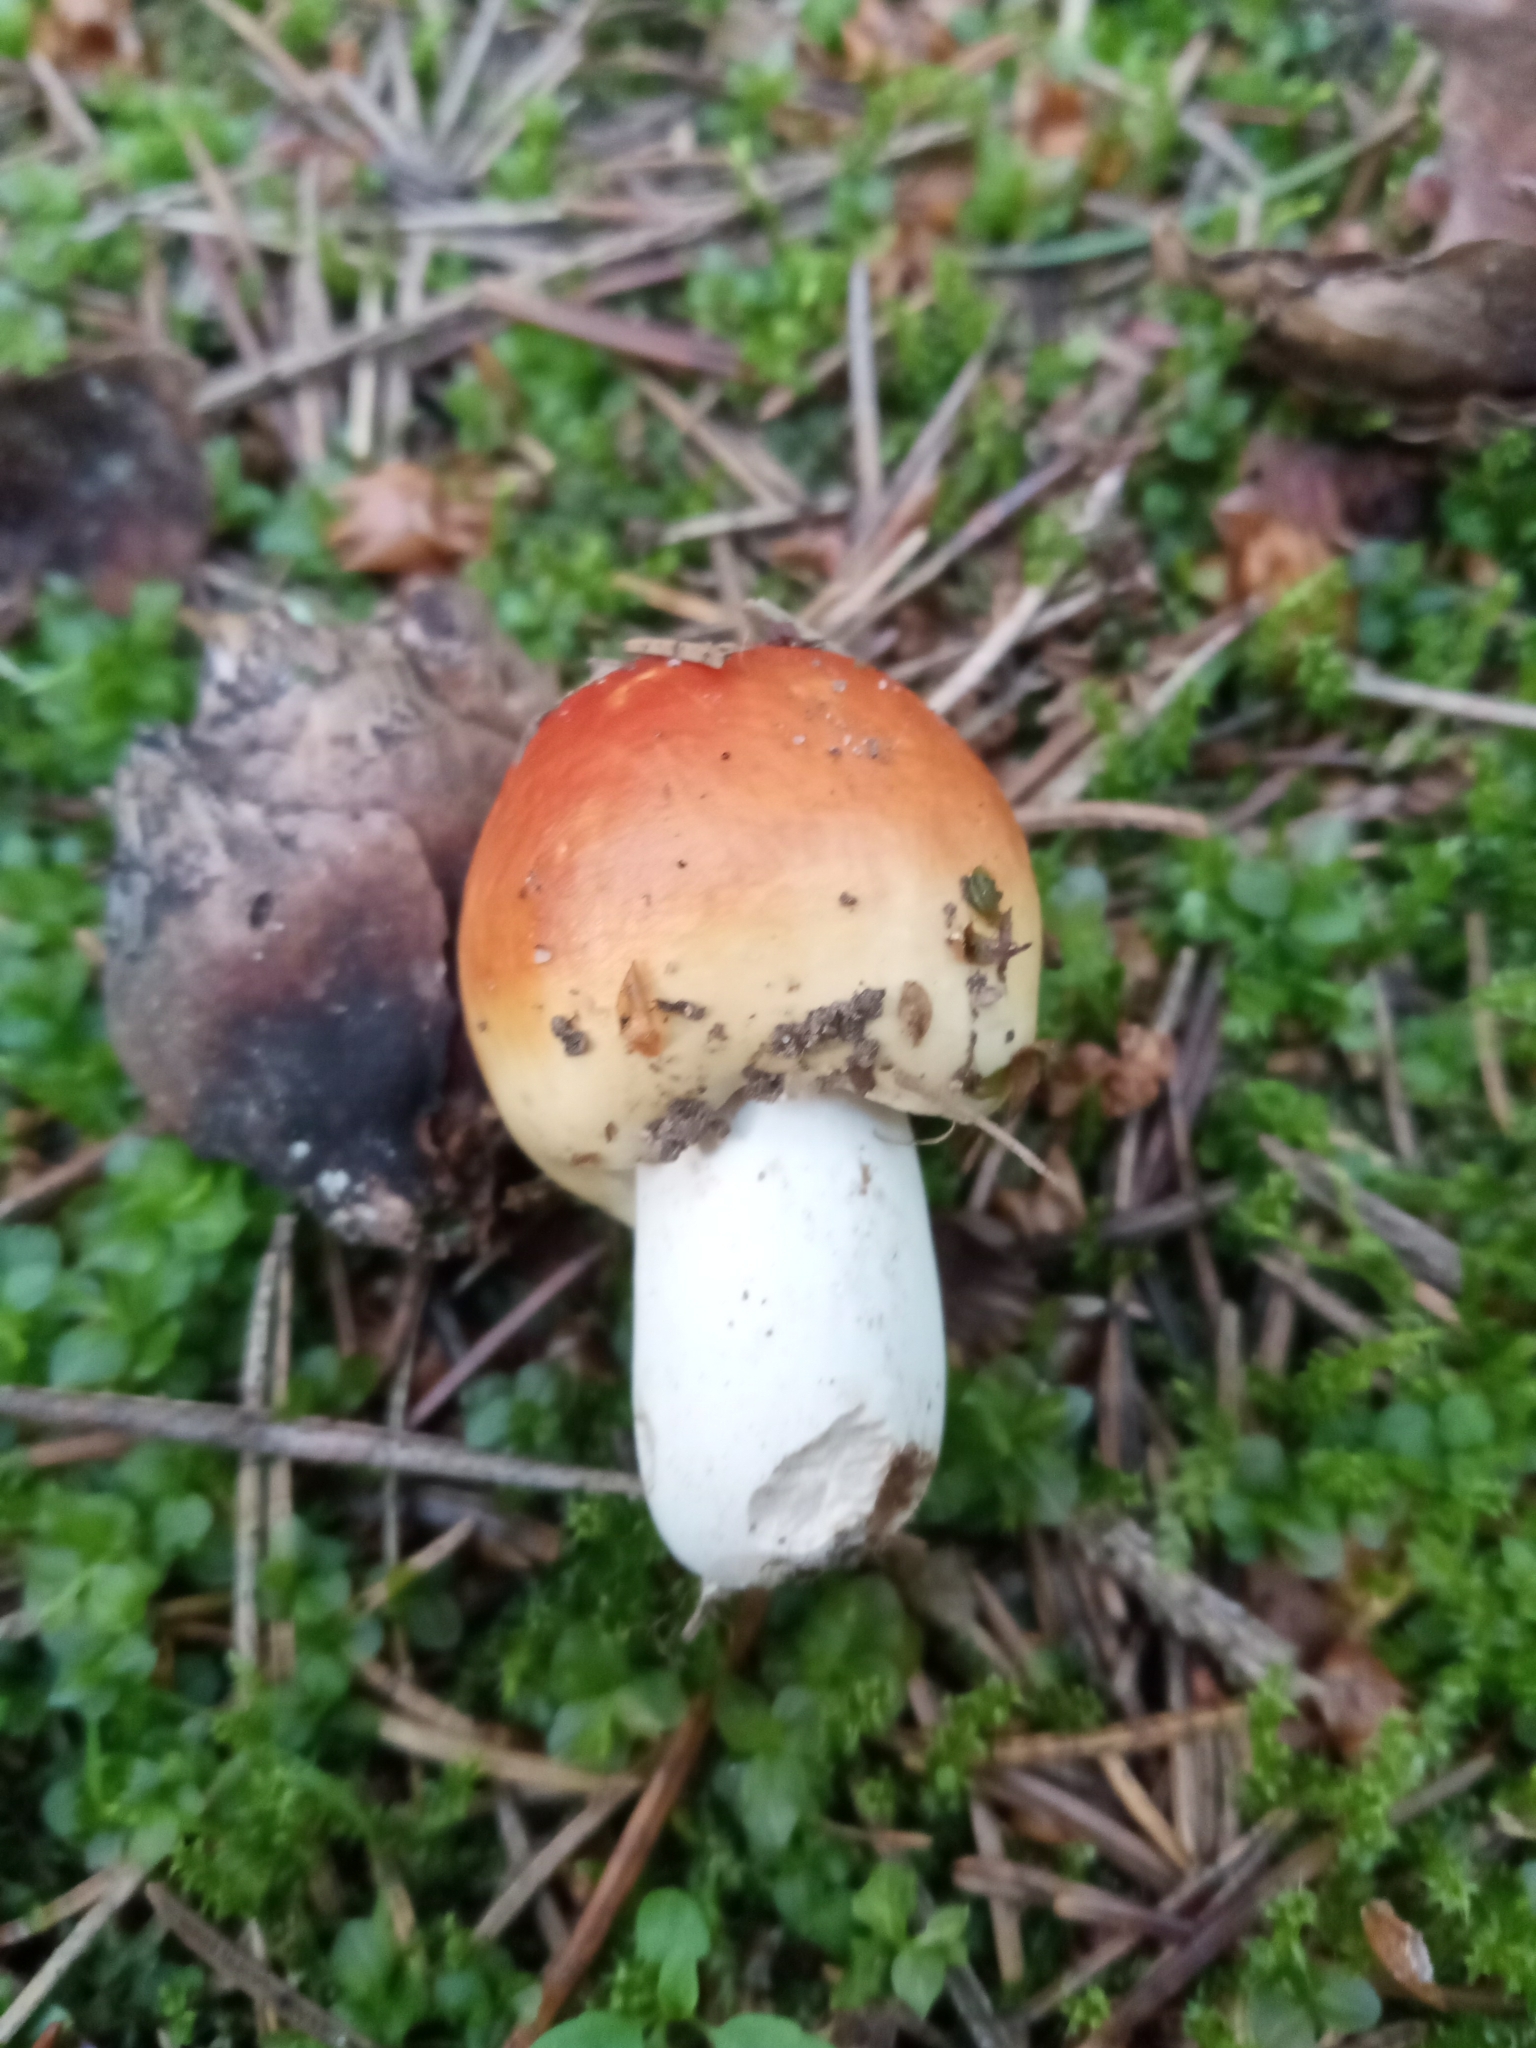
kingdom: Fungi
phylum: Basidiomycota
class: Agaricomycetes
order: Russulales
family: Russulaceae
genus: Russula
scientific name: Russula
